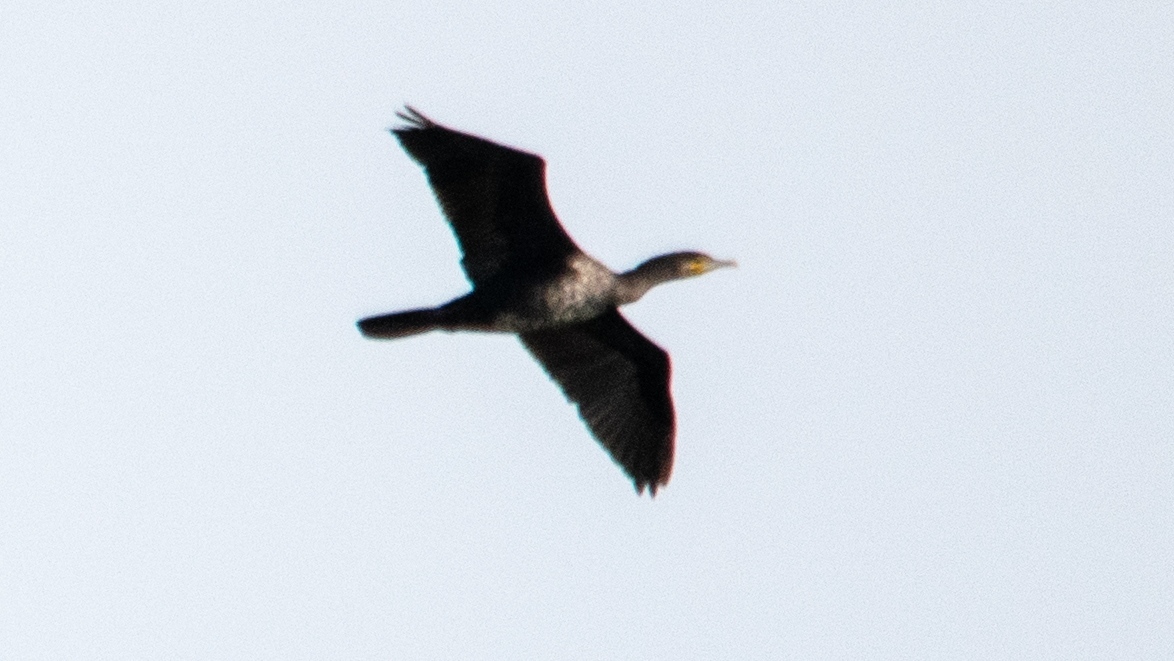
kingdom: Animalia
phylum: Chordata
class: Aves
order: Suliformes
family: Phalacrocoracidae
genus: Phalacrocorax
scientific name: Phalacrocorax carbo
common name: Great cormorant
